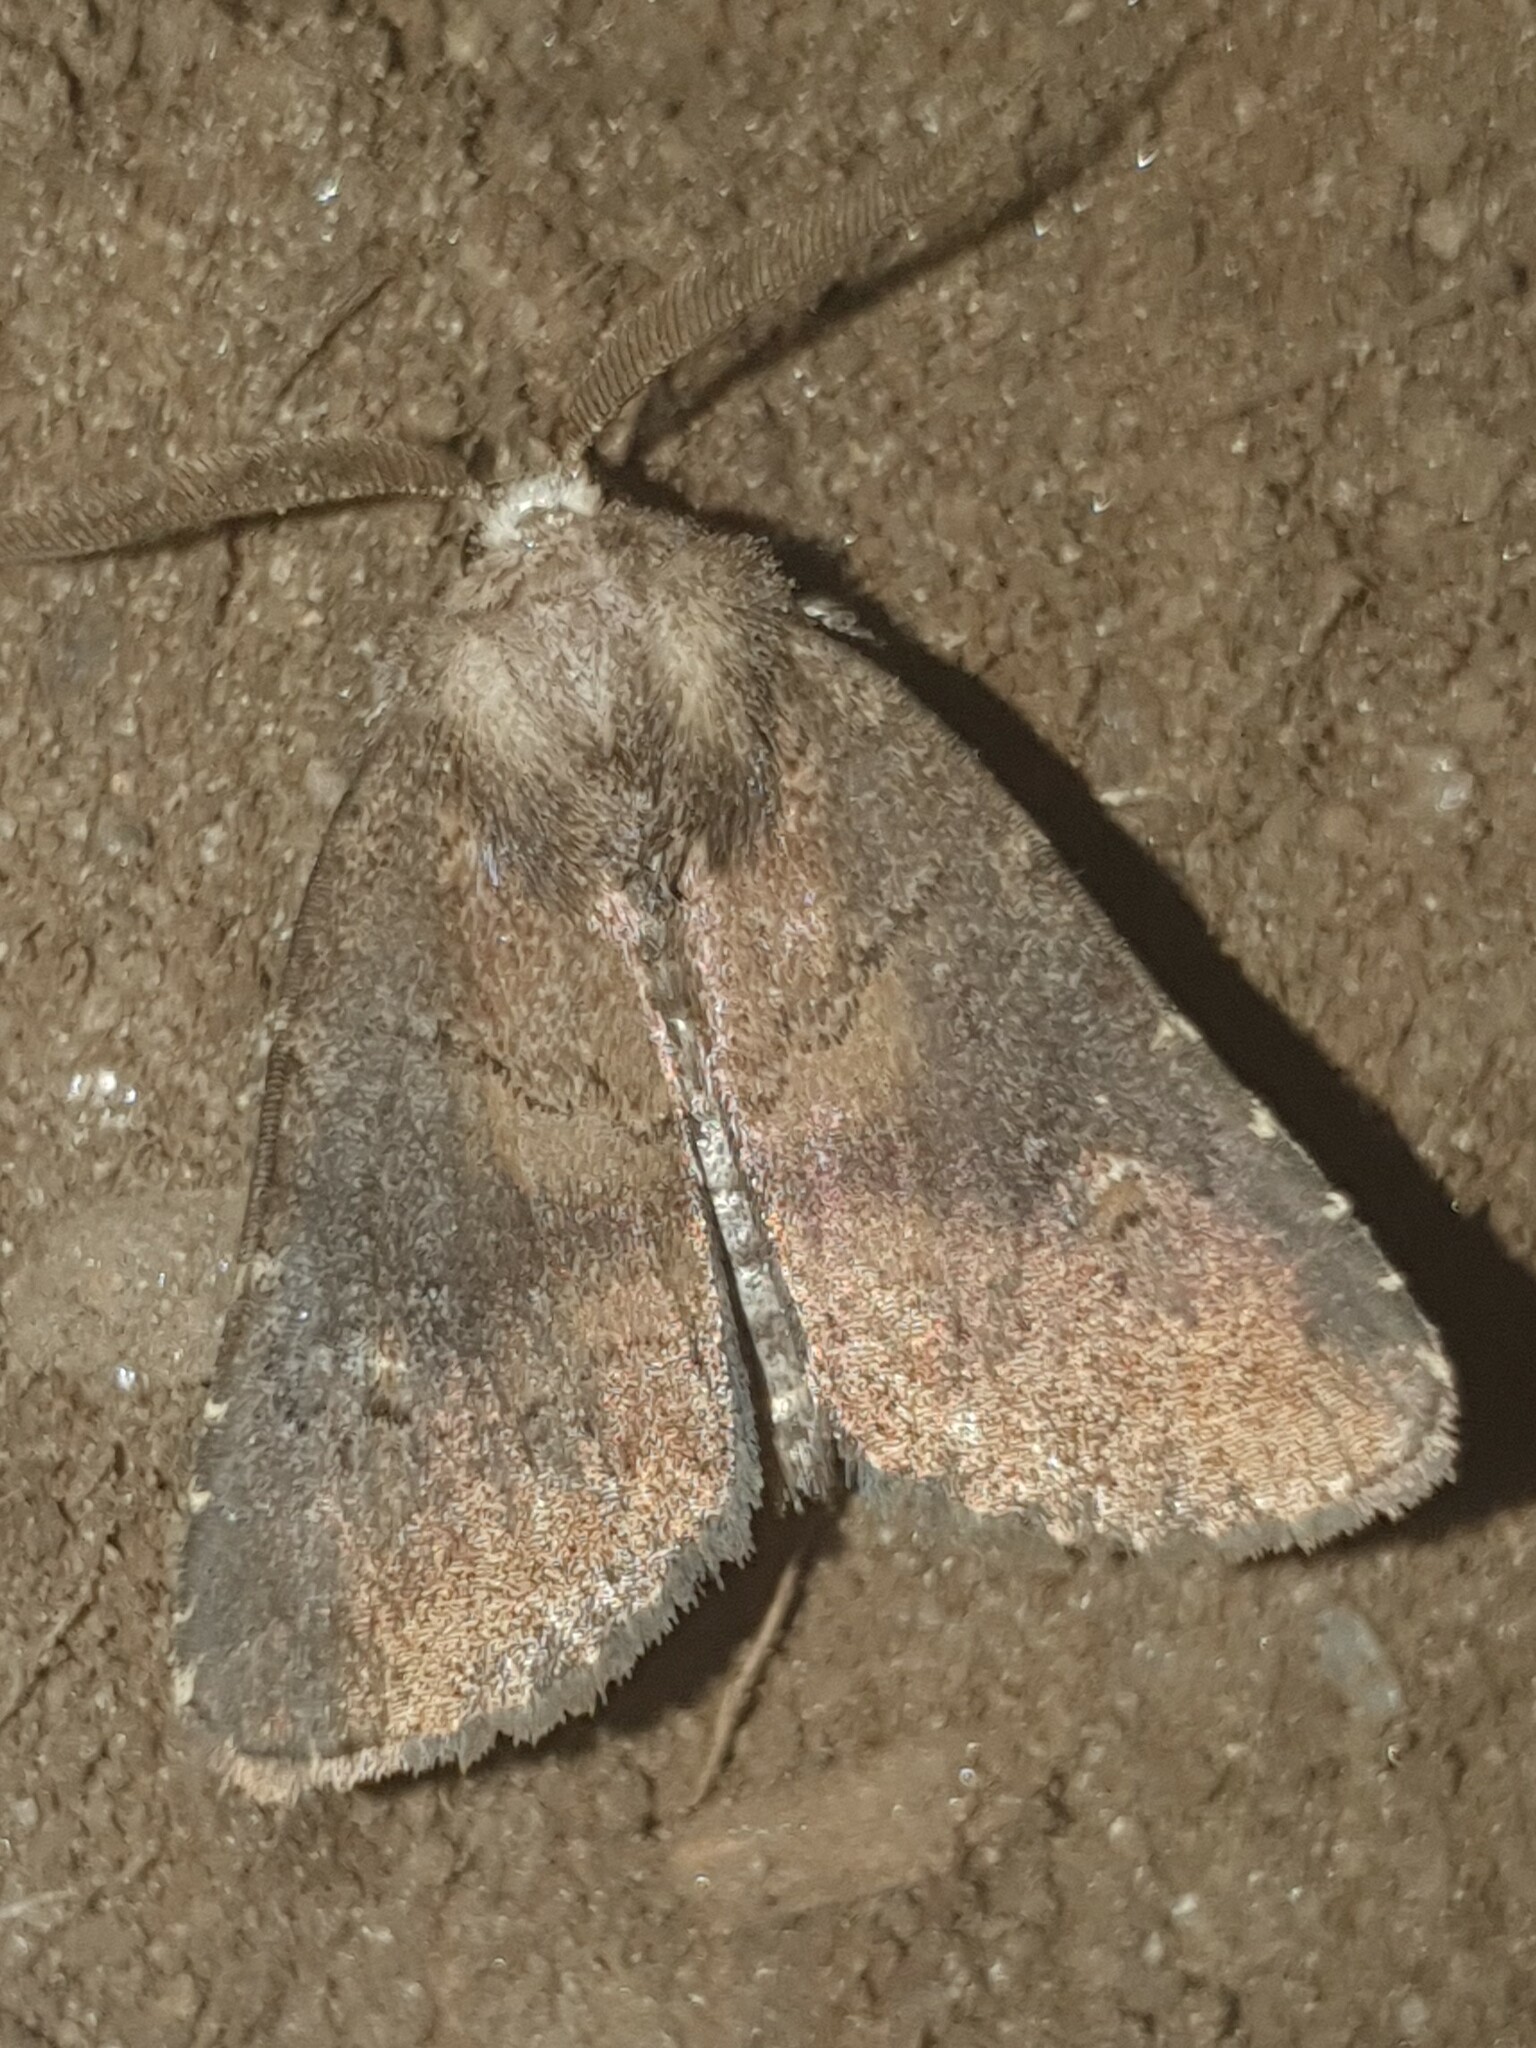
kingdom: Animalia
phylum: Arthropoda
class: Insecta
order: Lepidoptera
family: Noctuidae
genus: Charanyca
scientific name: Charanyca ferruginea
